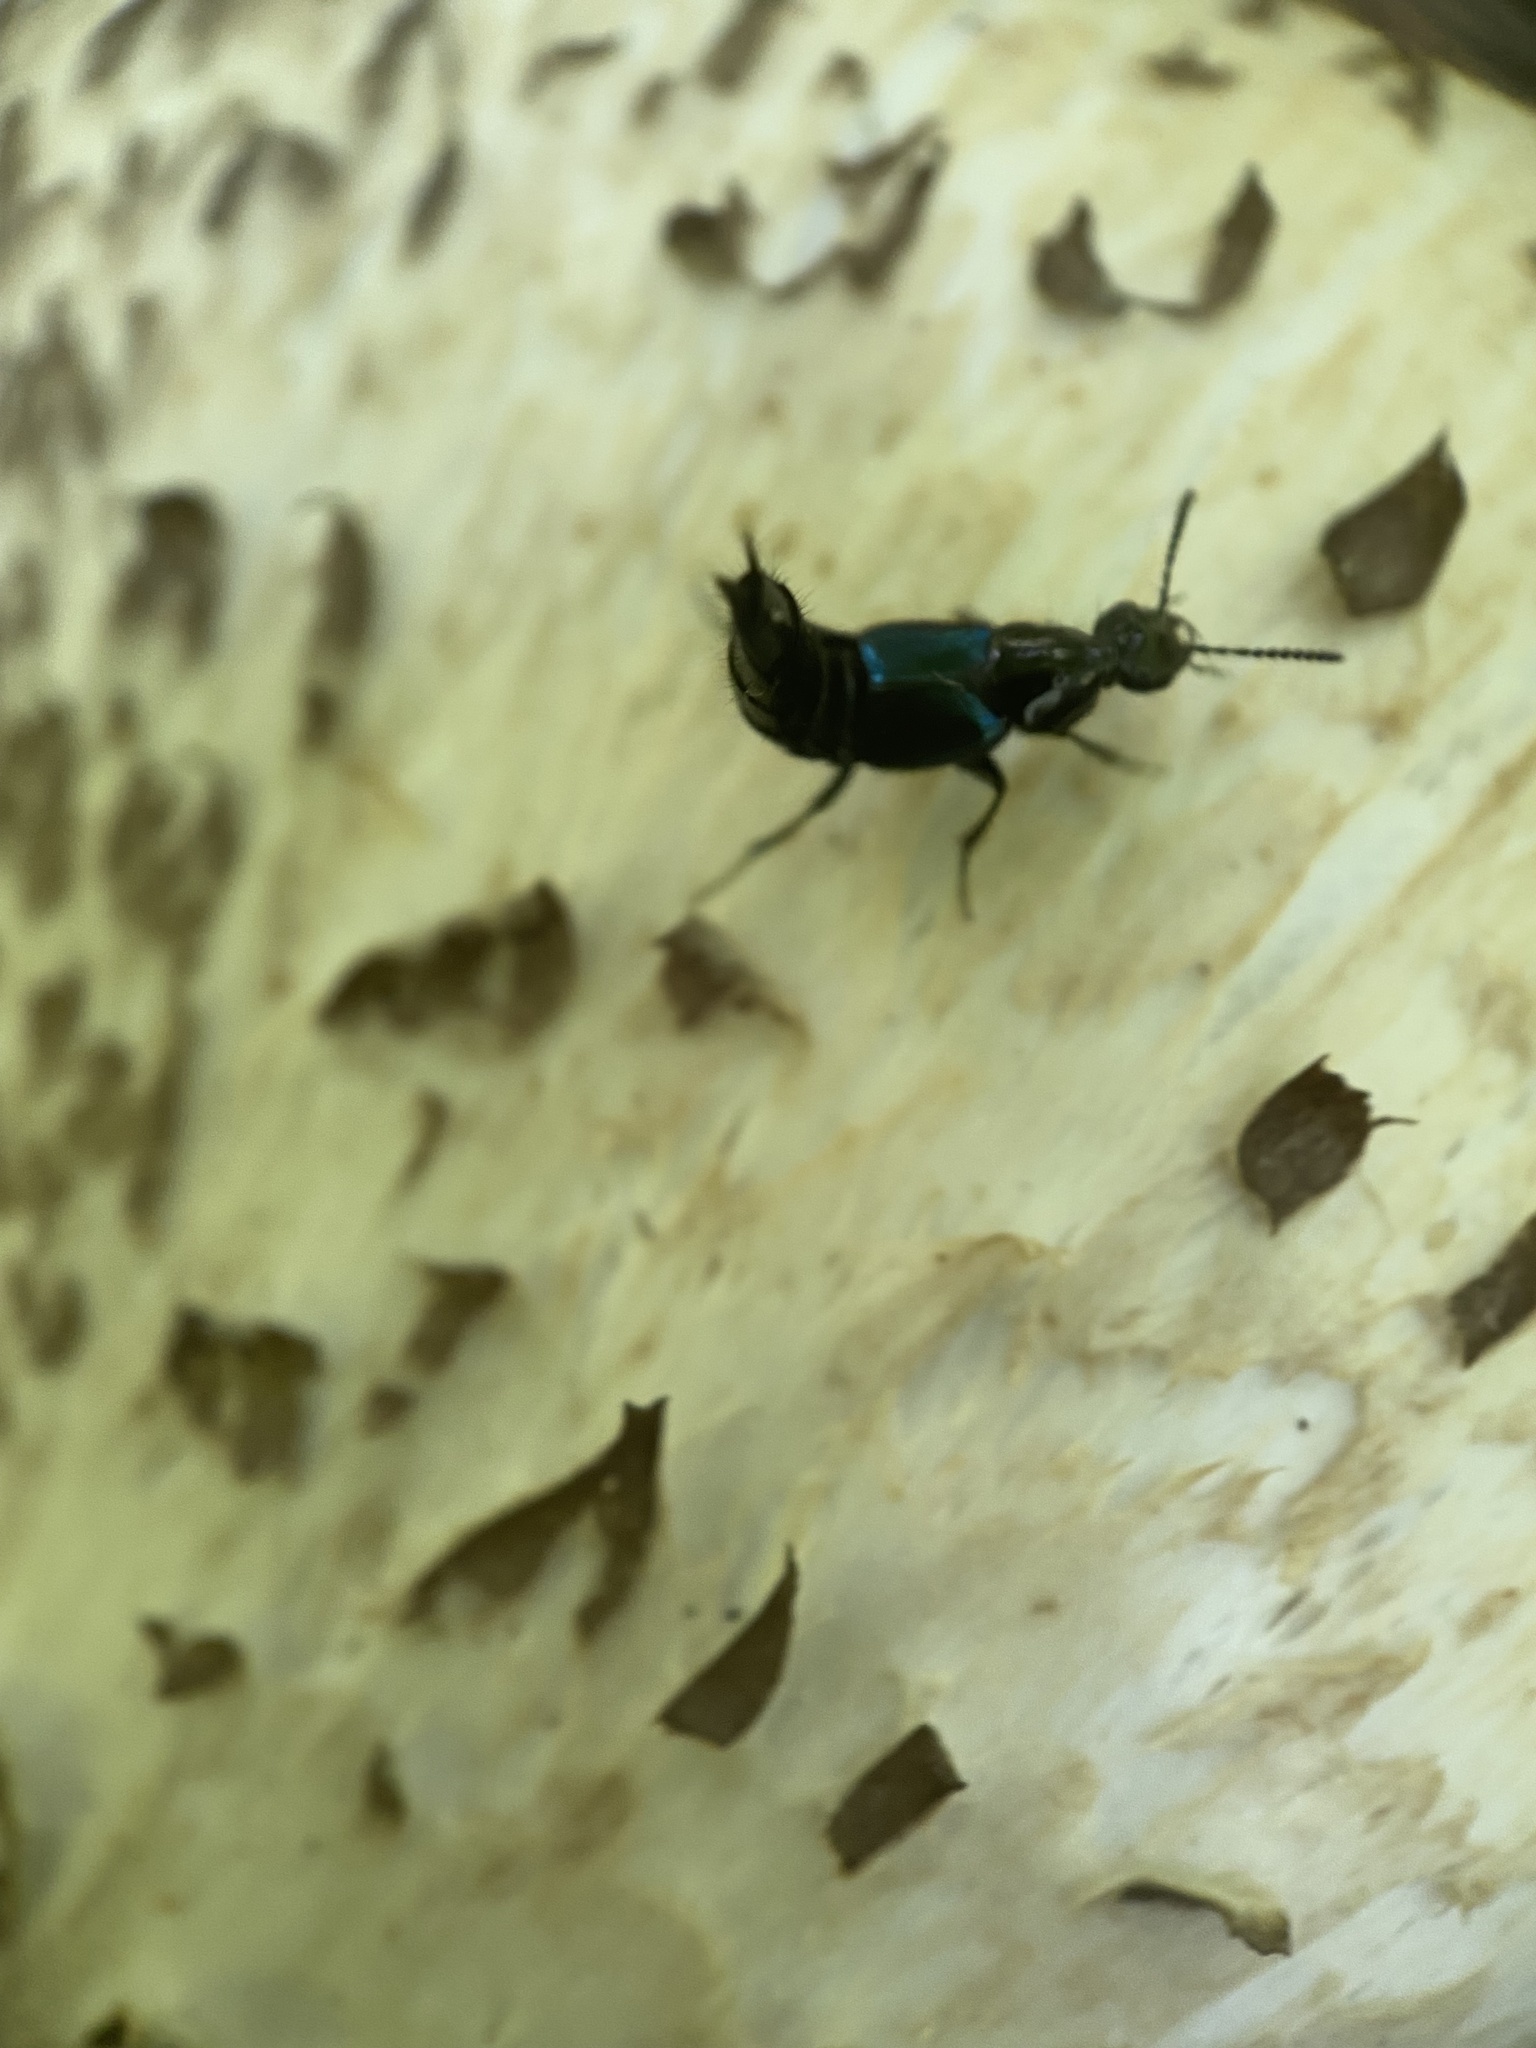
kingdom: Animalia
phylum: Arthropoda
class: Insecta
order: Coleoptera
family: Staphylinidae
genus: Philonthus
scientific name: Philonthus caeruleipennis
